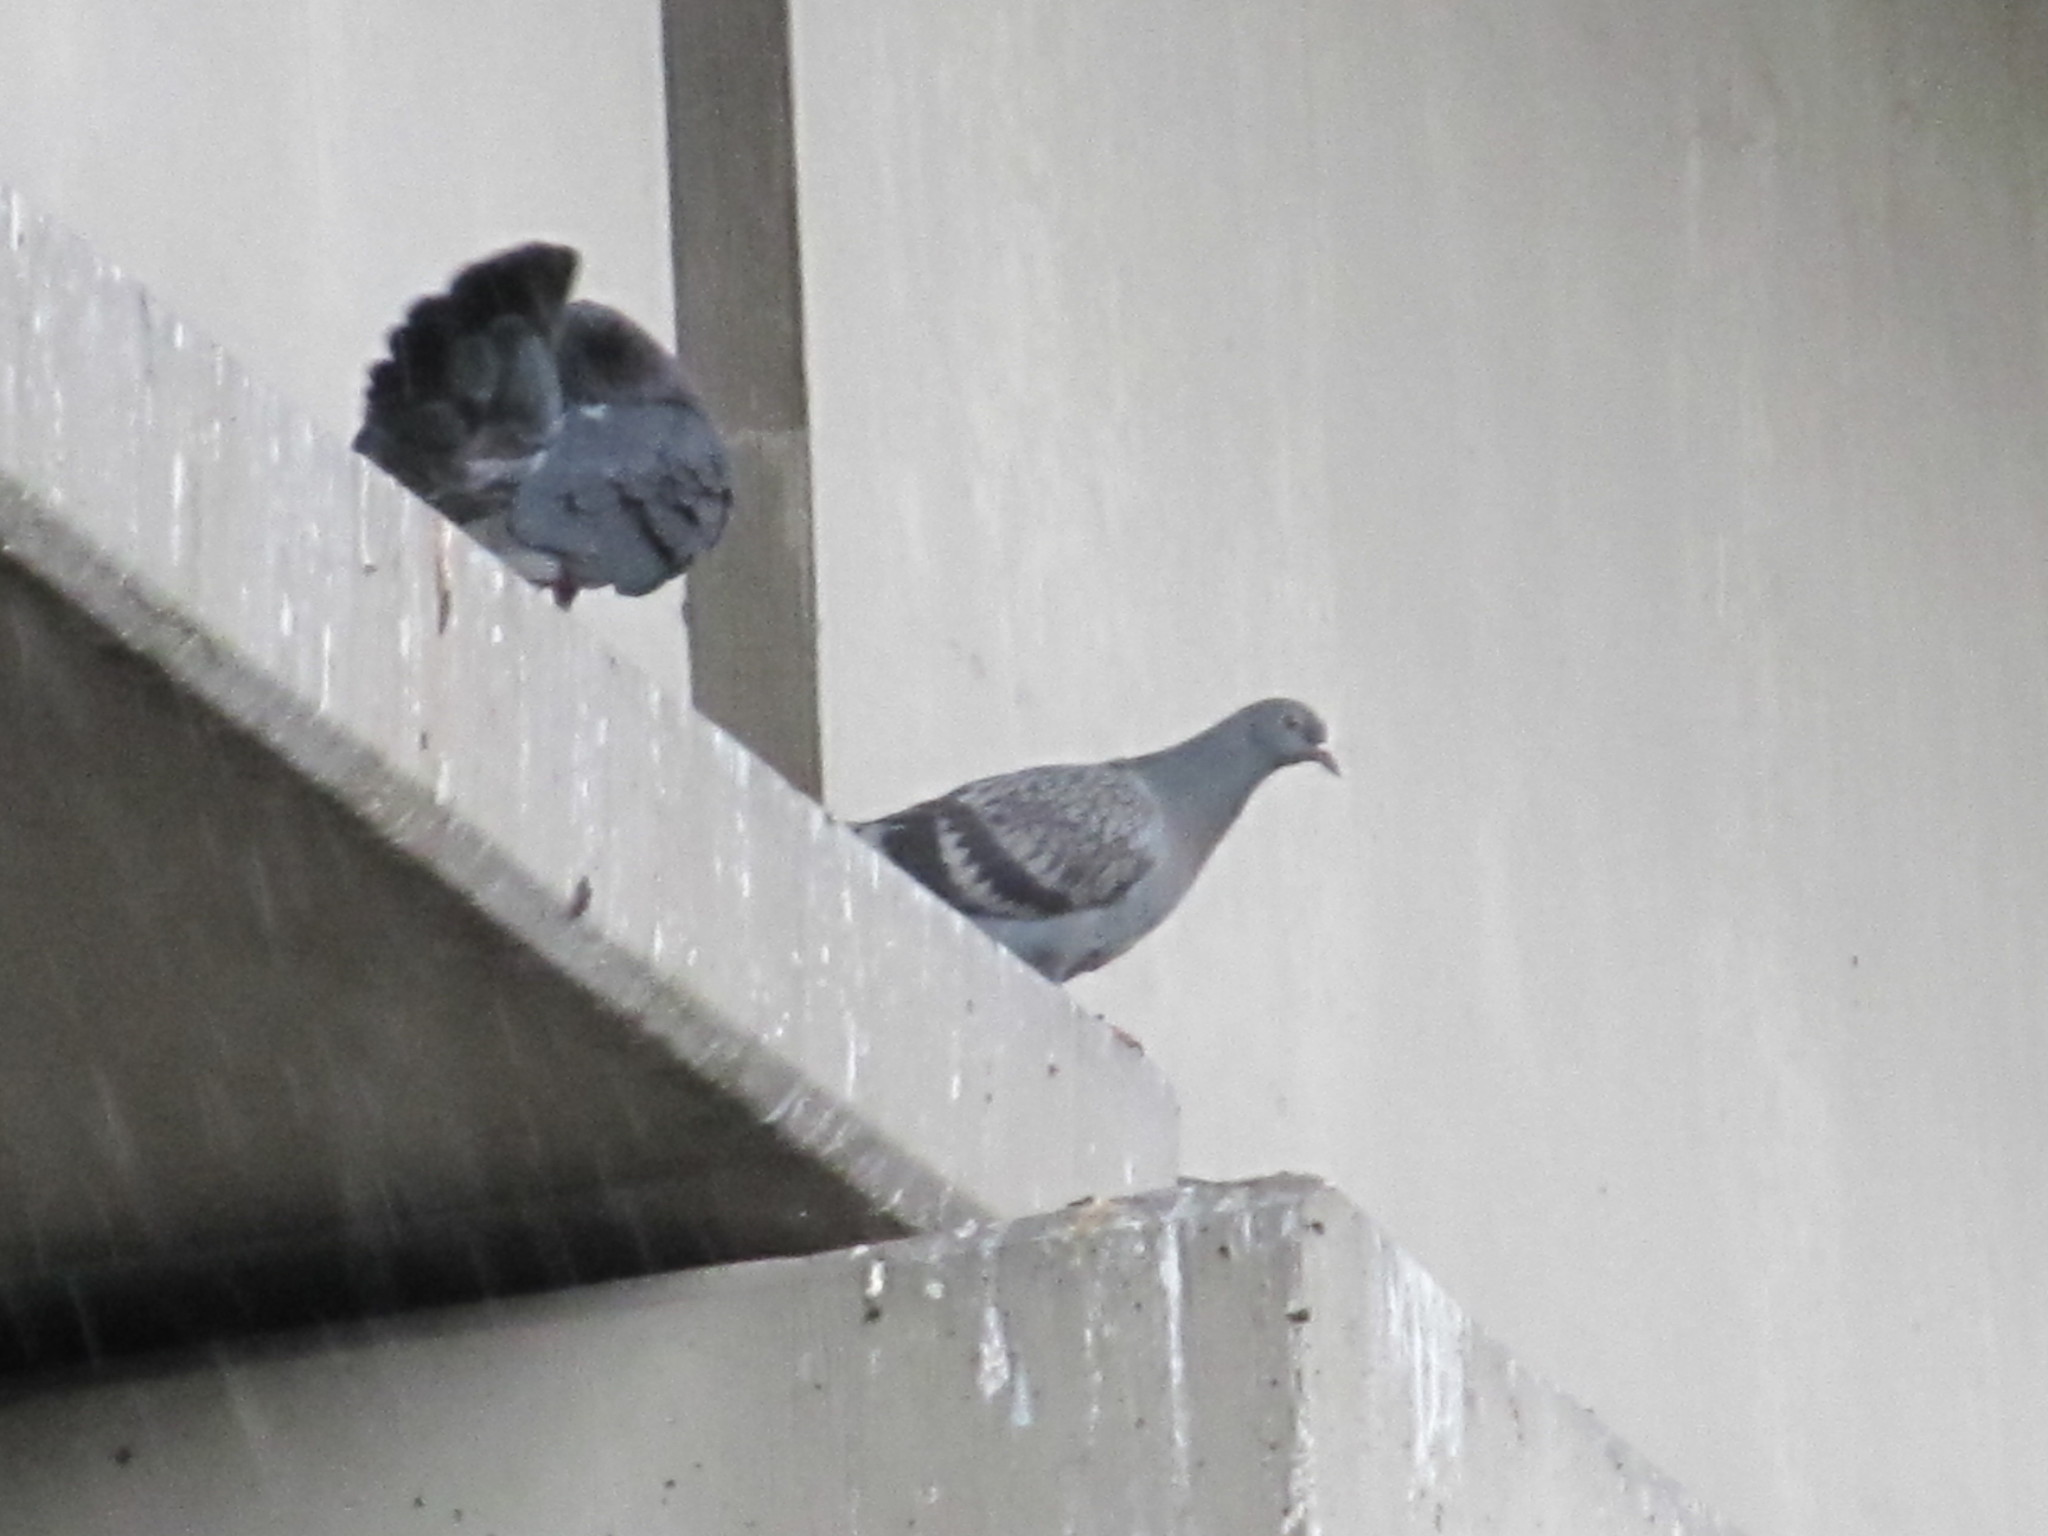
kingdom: Animalia
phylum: Chordata
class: Aves
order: Columbiformes
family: Columbidae
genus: Columba
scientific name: Columba livia
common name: Rock pigeon
